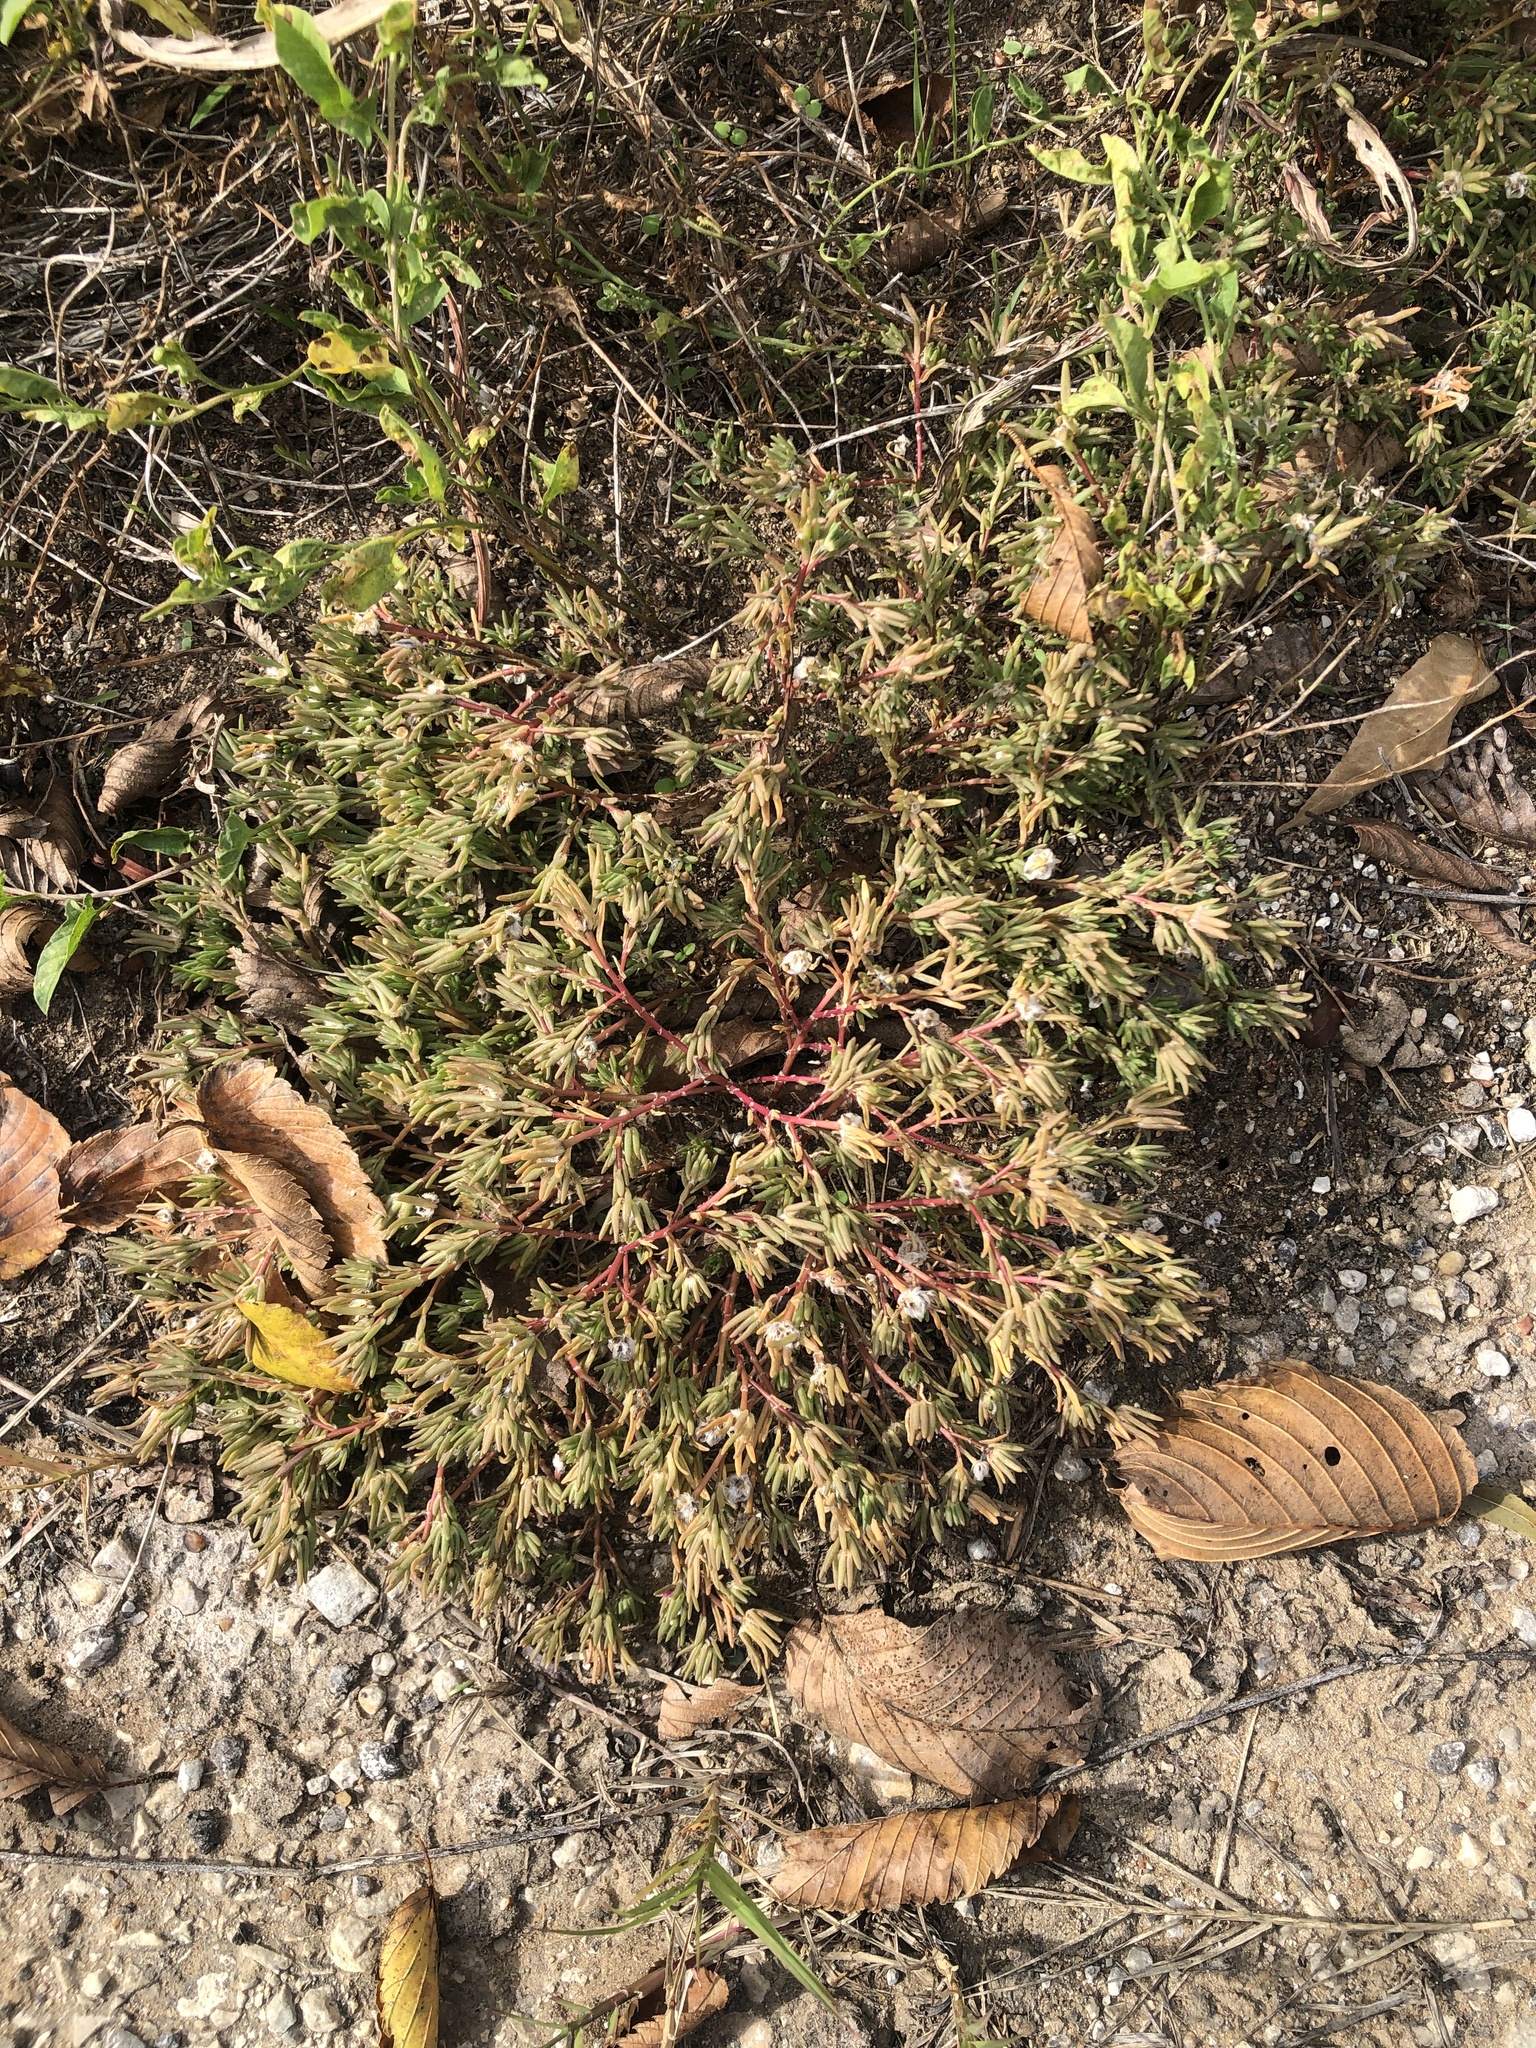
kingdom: Plantae
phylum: Tracheophyta
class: Magnoliopsida
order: Caryophyllales
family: Portulacaceae
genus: Portulaca
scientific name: Portulaca pilosa
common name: Kiss me quick
